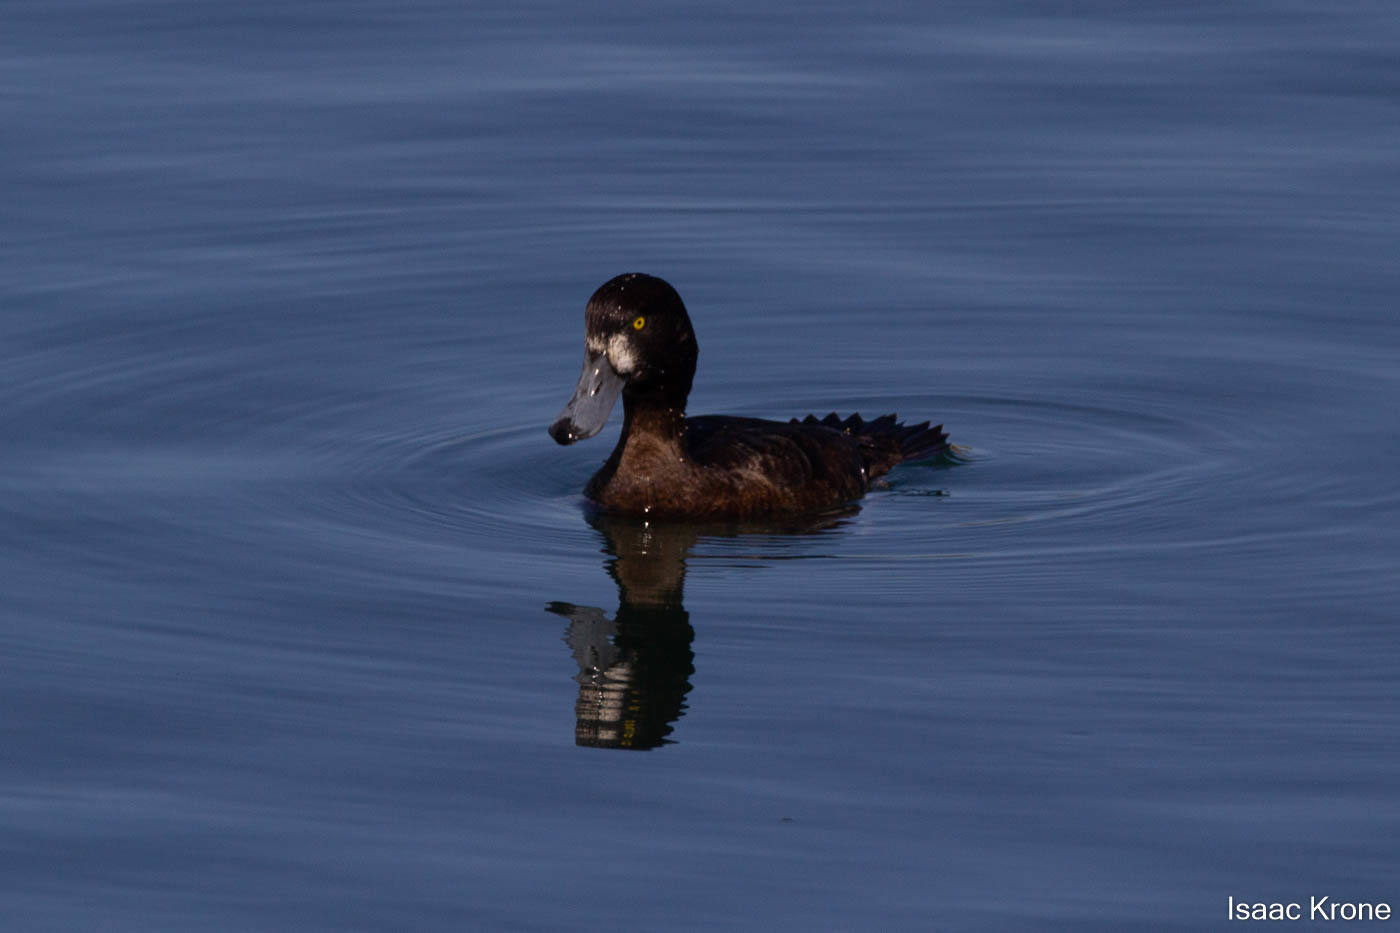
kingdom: Animalia
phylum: Chordata
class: Aves
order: Anseriformes
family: Anatidae
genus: Aythya
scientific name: Aythya marila
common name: Greater scaup
